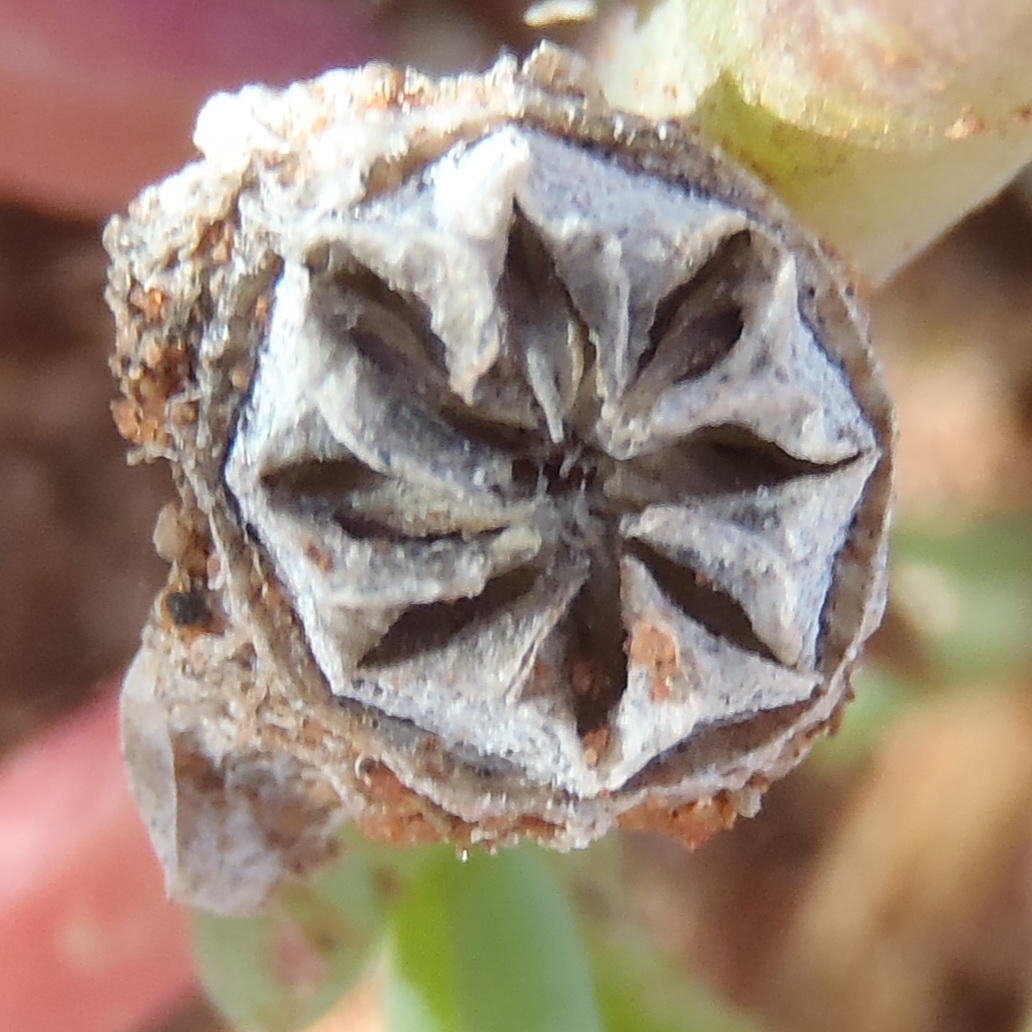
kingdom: Plantae
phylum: Tracheophyta
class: Magnoliopsida
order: Caryophyllales
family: Aizoaceae
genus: Malephora
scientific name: Malephora thunbergii
